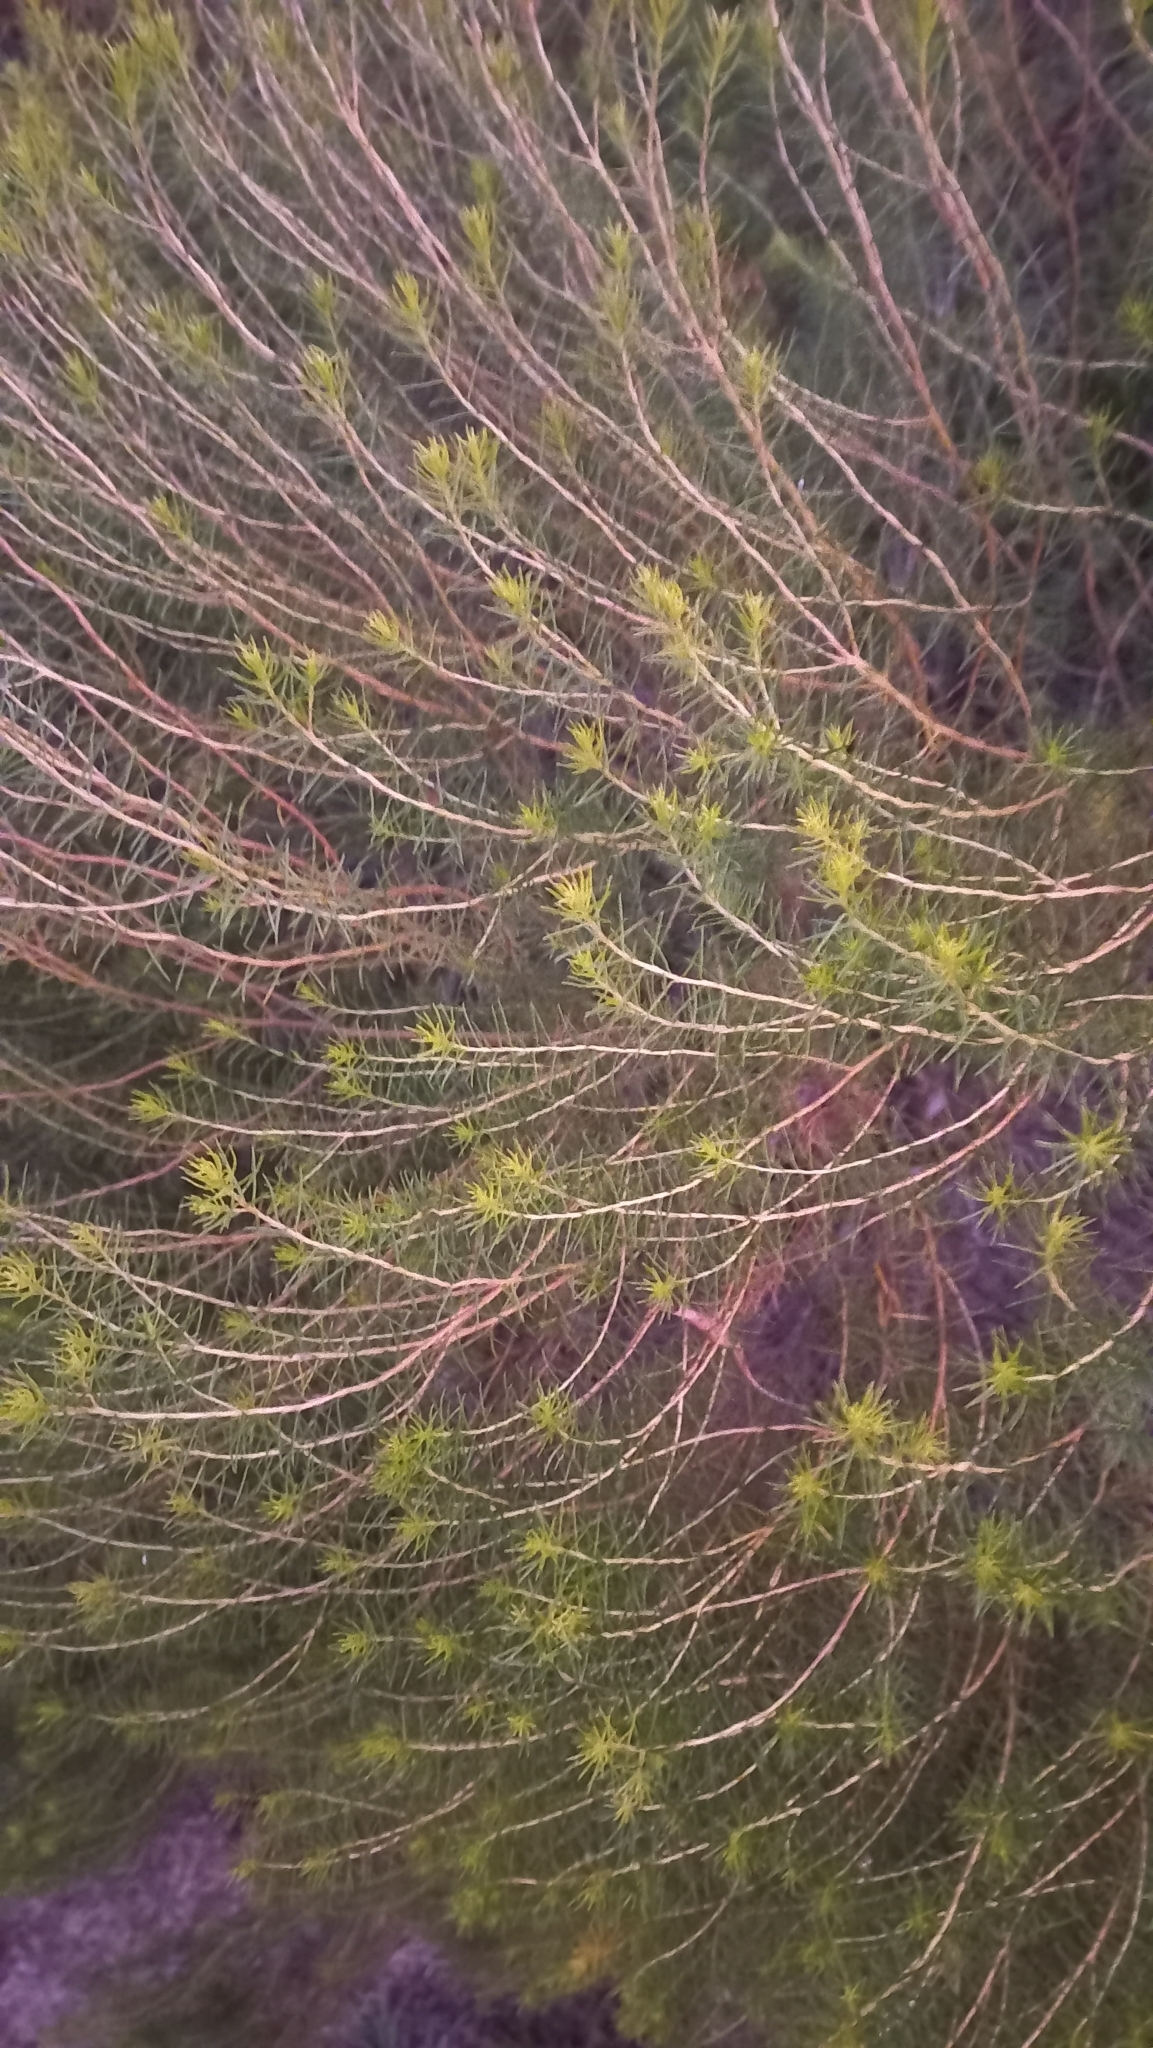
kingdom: Plantae
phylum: Tracheophyta
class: Magnoliopsida
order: Asterales
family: Asteraceae
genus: Baccharis
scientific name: Baccharis aliena
